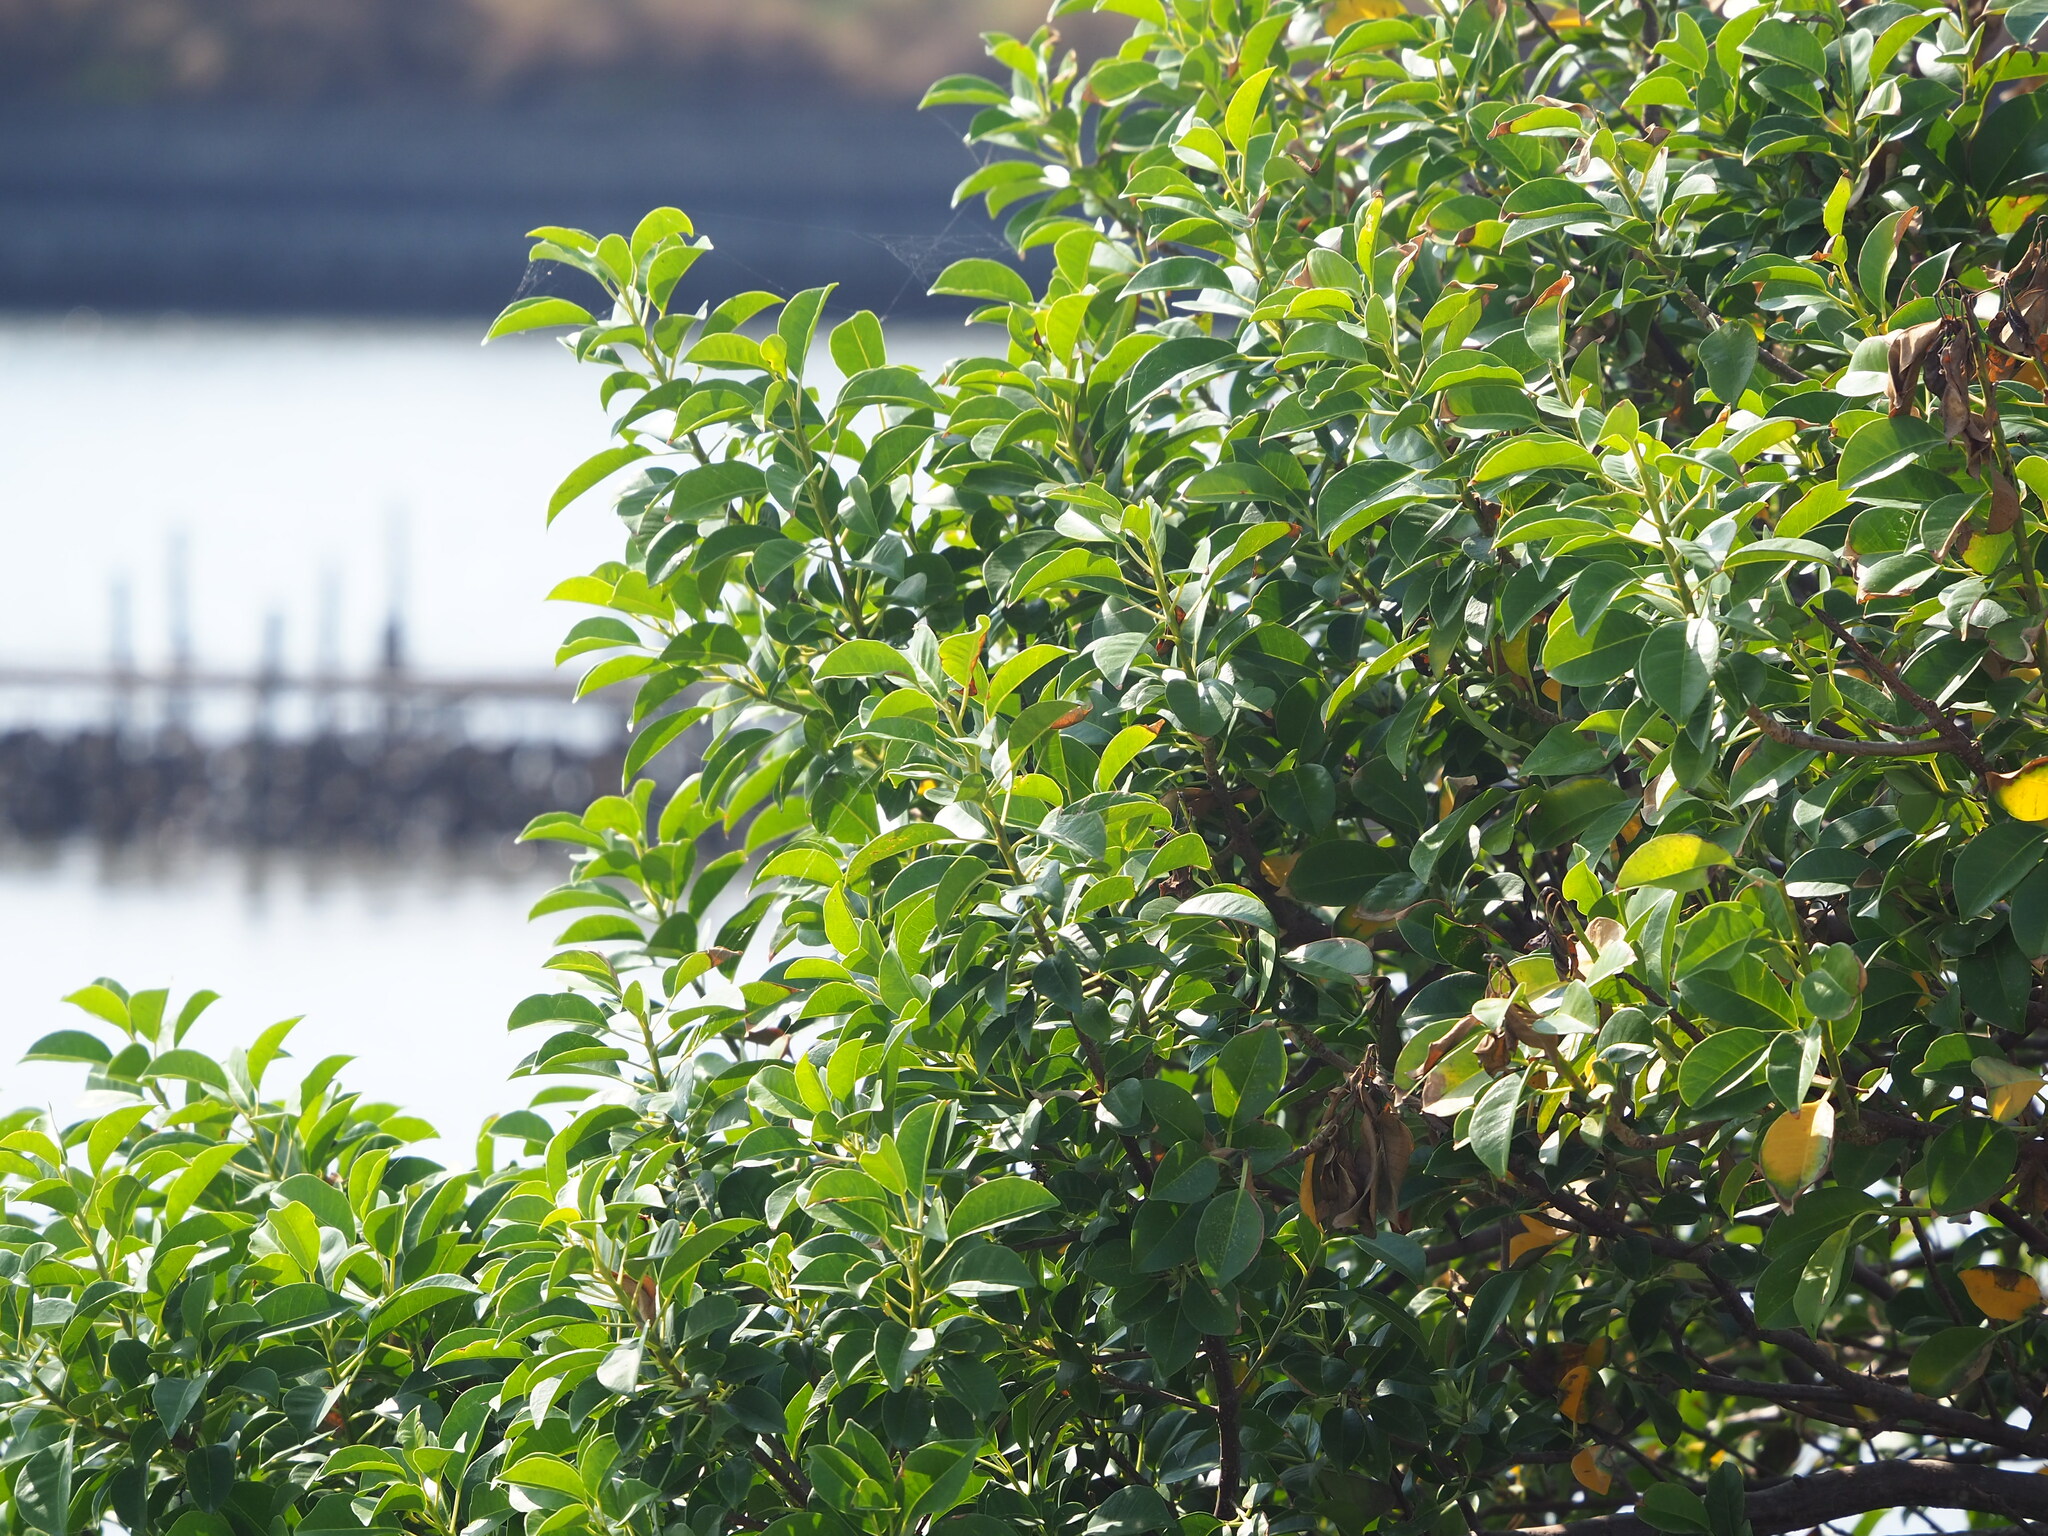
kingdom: Plantae
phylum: Tracheophyta
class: Magnoliopsida
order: Malpighiales
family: Euphorbiaceae
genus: Excoecaria
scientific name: Excoecaria agallocha
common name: River poisontree
